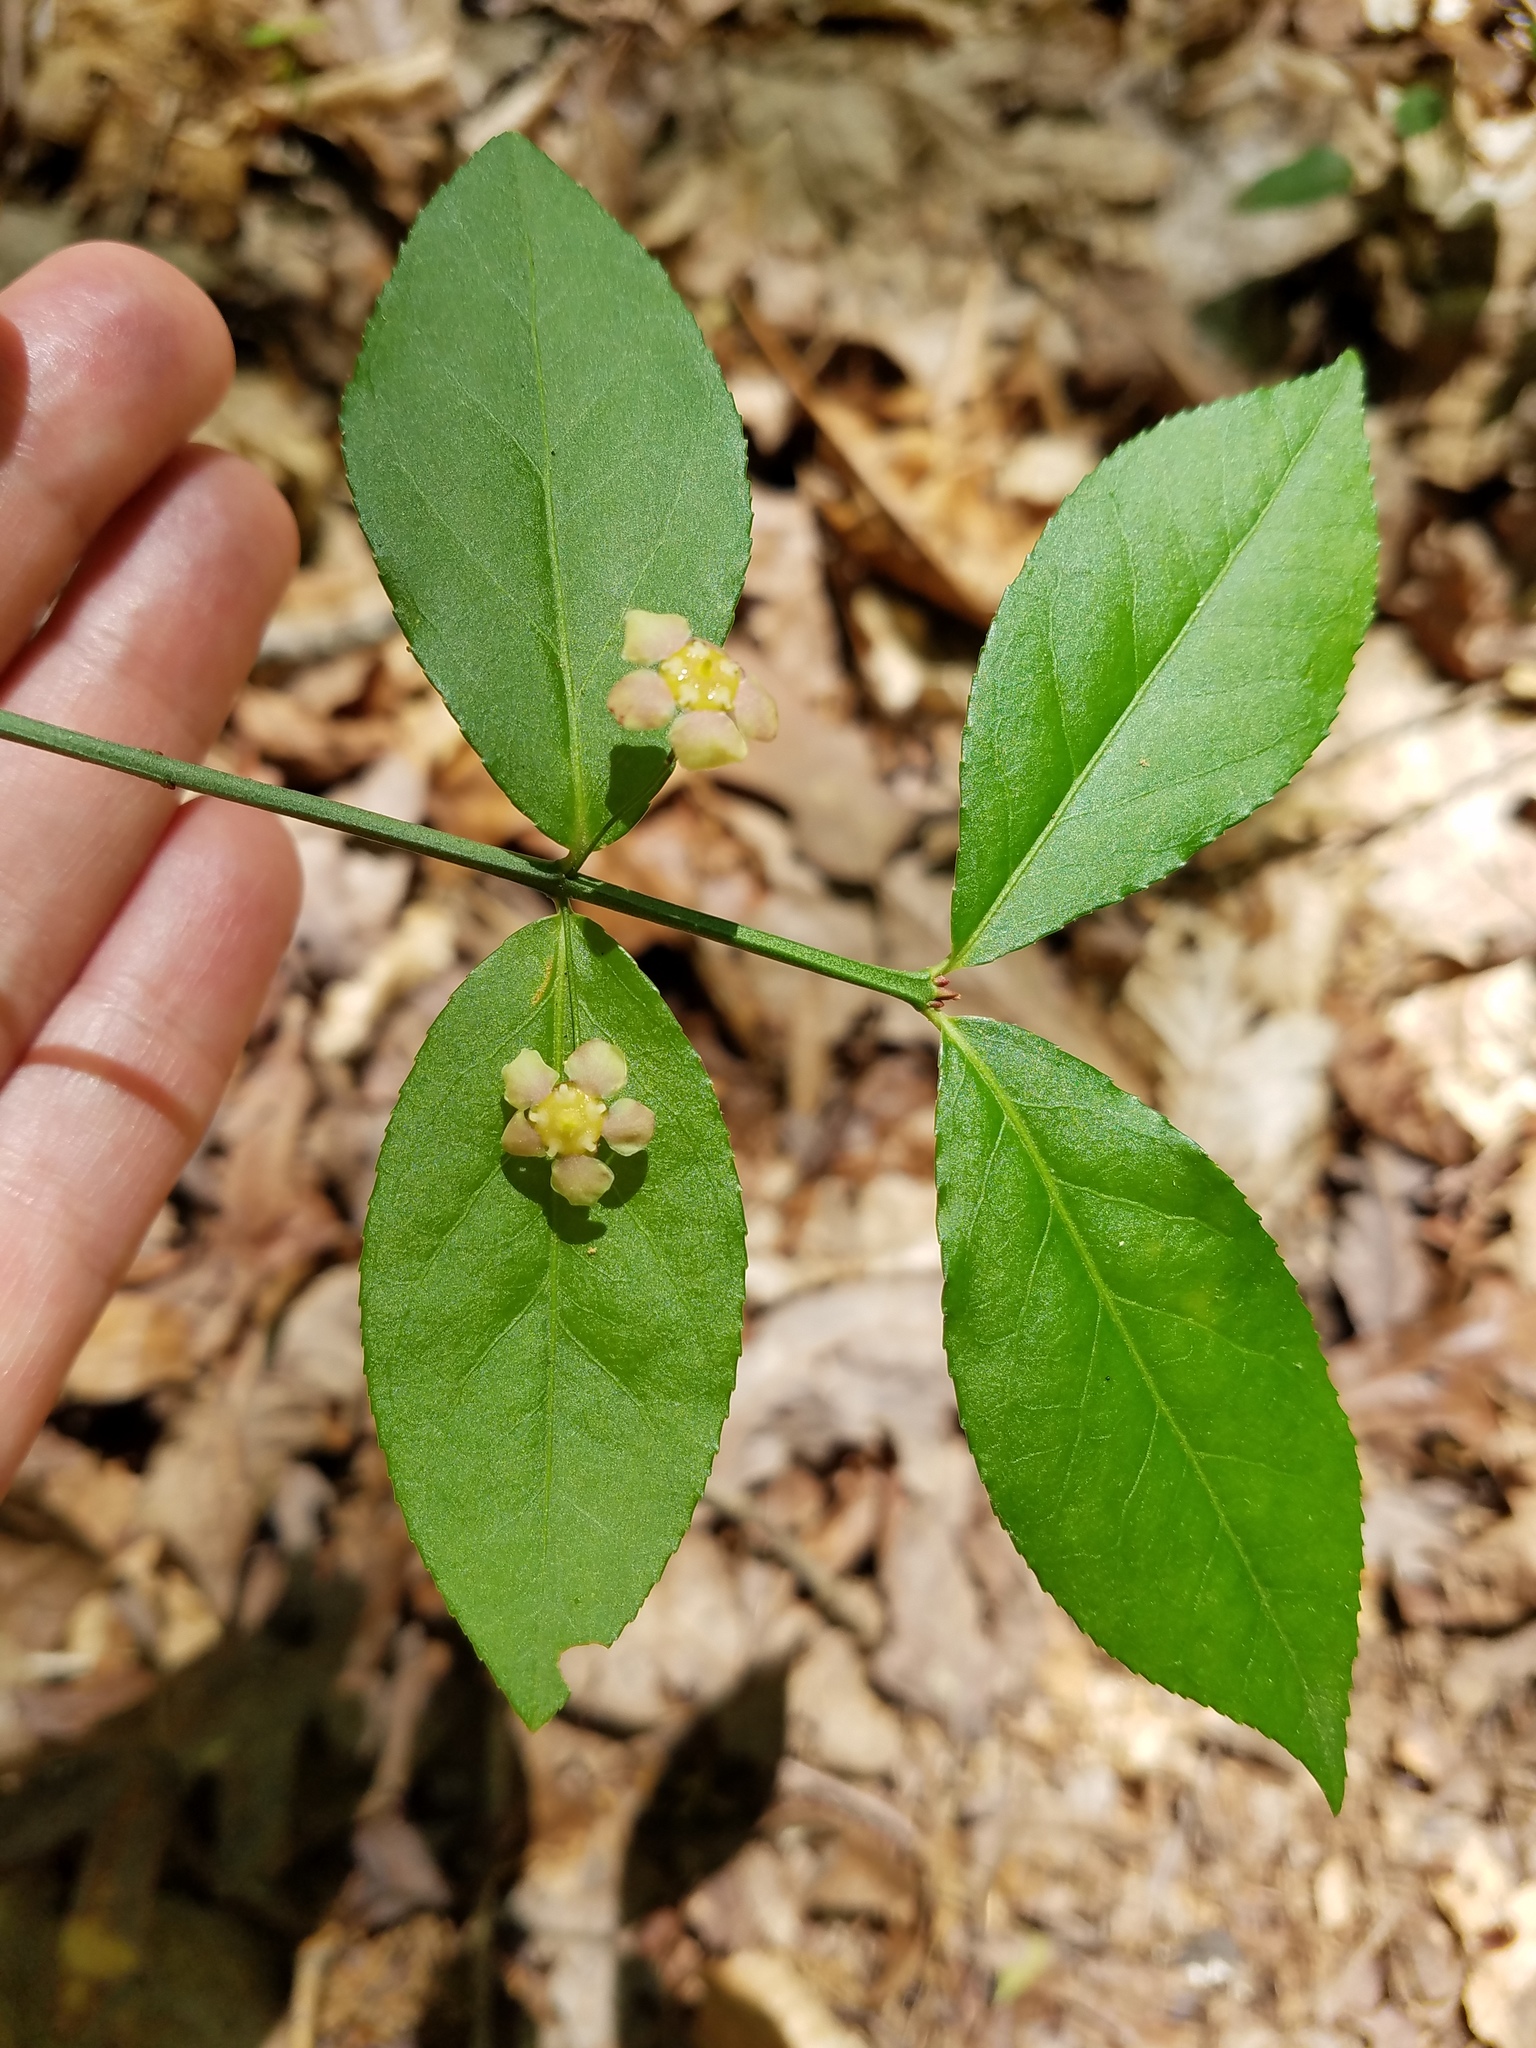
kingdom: Plantae
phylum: Tracheophyta
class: Magnoliopsida
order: Celastrales
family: Celastraceae
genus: Euonymus
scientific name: Euonymus americanus
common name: Bursting-heart
